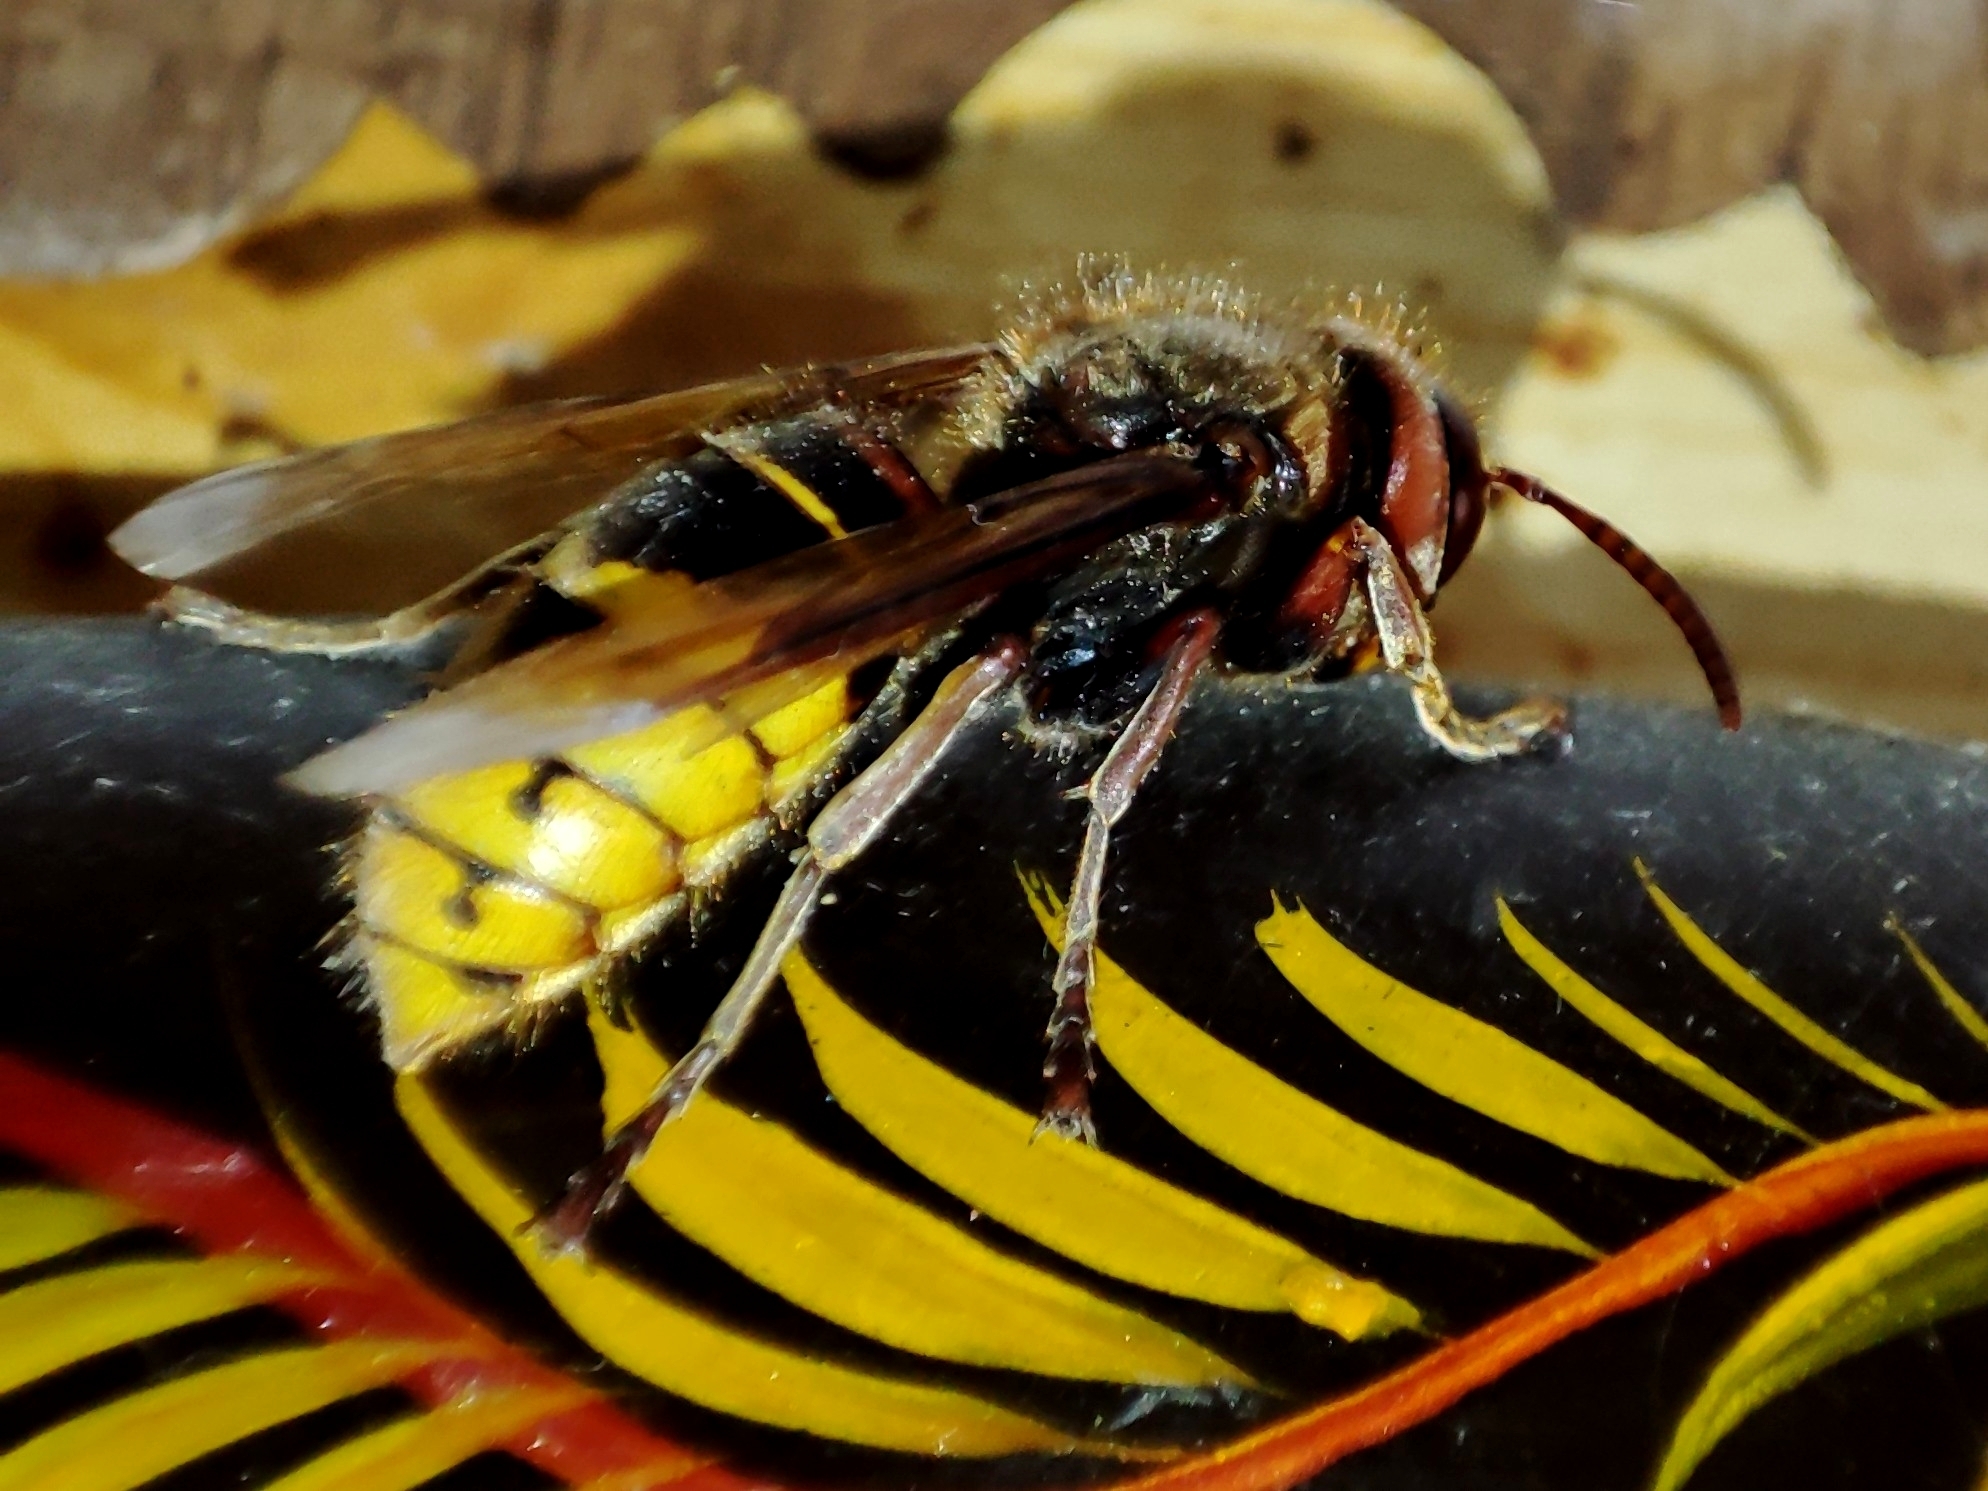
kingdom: Animalia
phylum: Arthropoda
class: Insecta
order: Hymenoptera
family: Vespidae
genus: Vespa
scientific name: Vespa crabro
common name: Hornet
